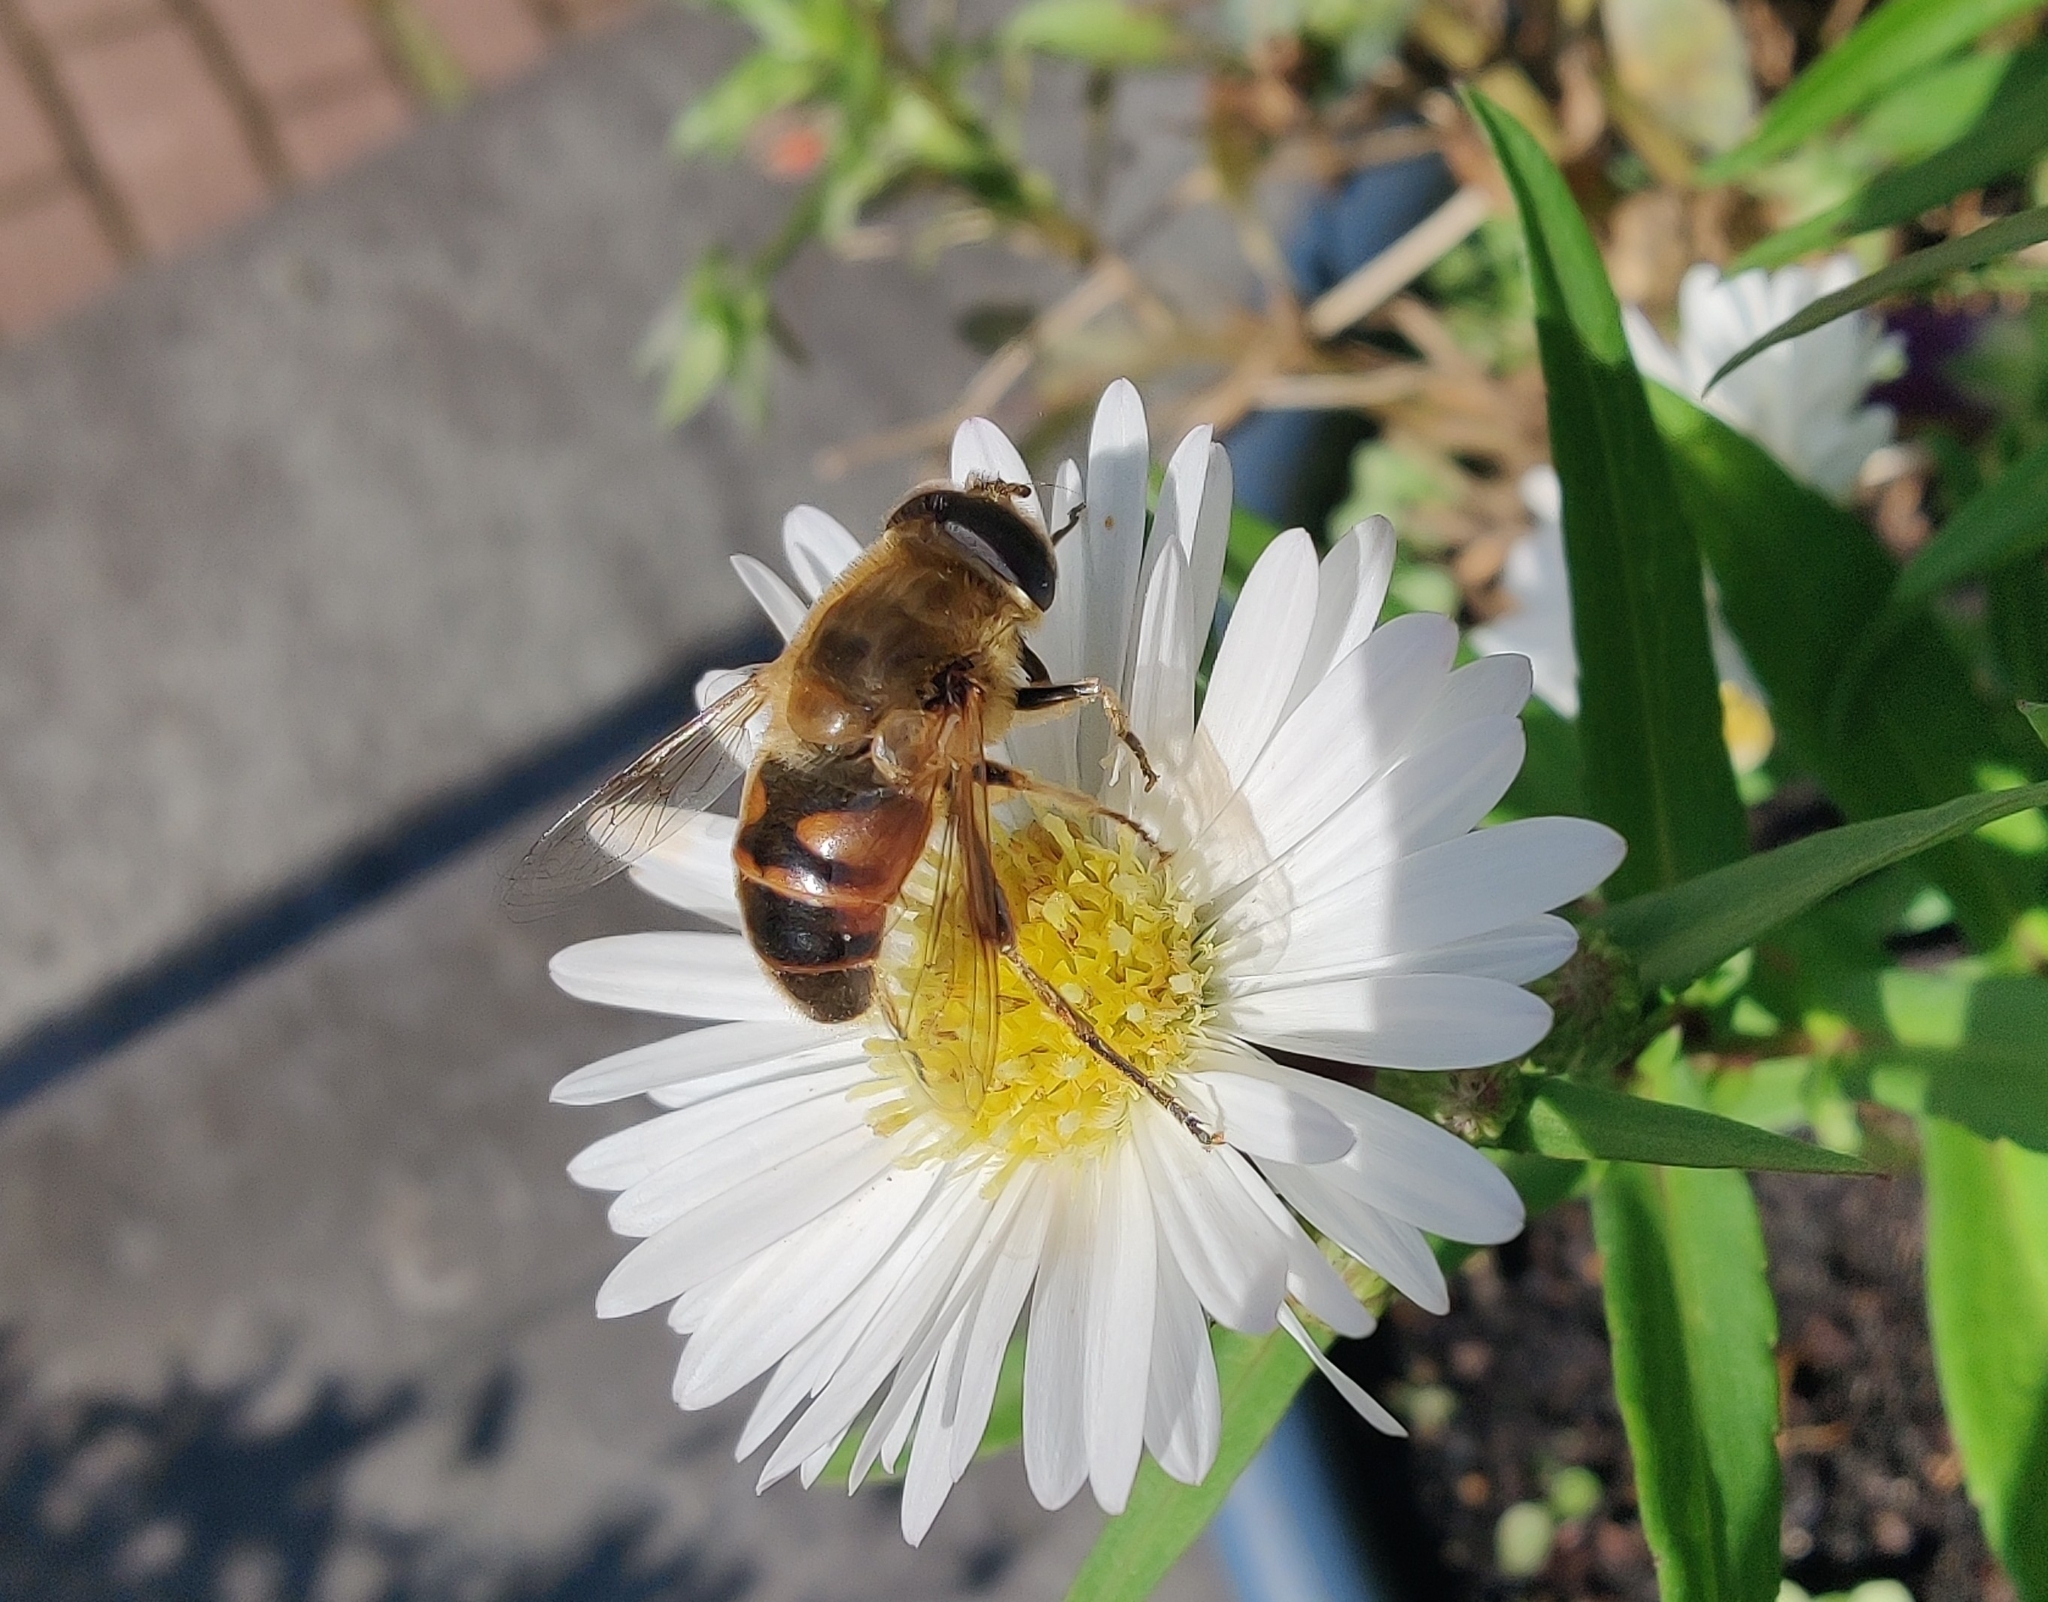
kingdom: Animalia
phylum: Arthropoda
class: Insecta
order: Diptera
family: Syrphidae
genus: Eristalis
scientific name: Eristalis tenax
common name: Drone fly
